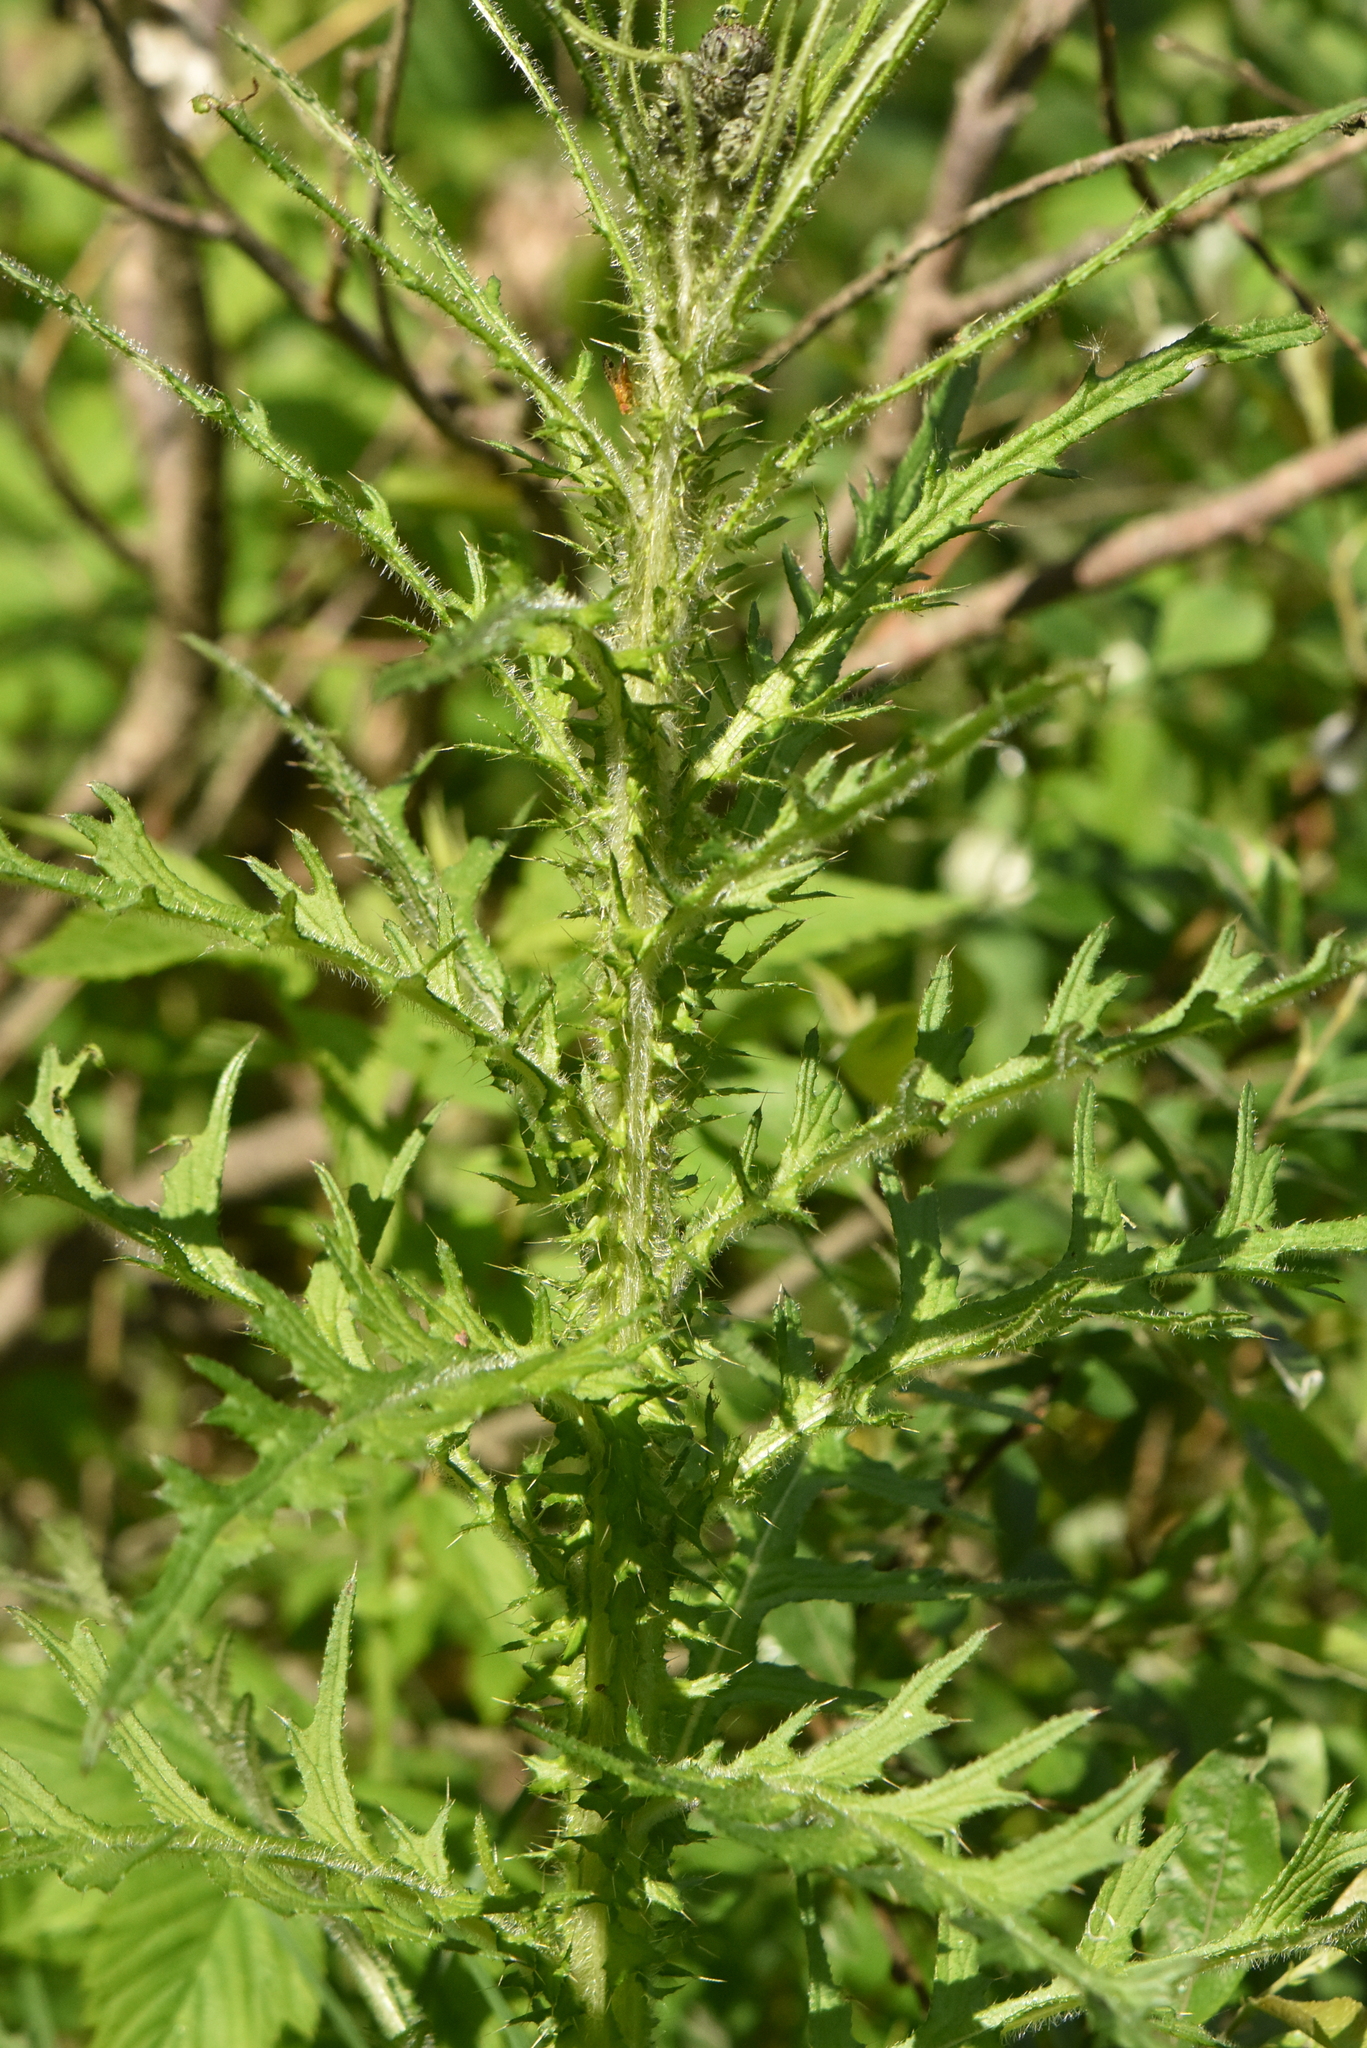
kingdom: Plantae
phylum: Tracheophyta
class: Magnoliopsida
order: Asterales
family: Asteraceae
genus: Cirsium
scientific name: Cirsium palustre
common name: Marsh thistle
